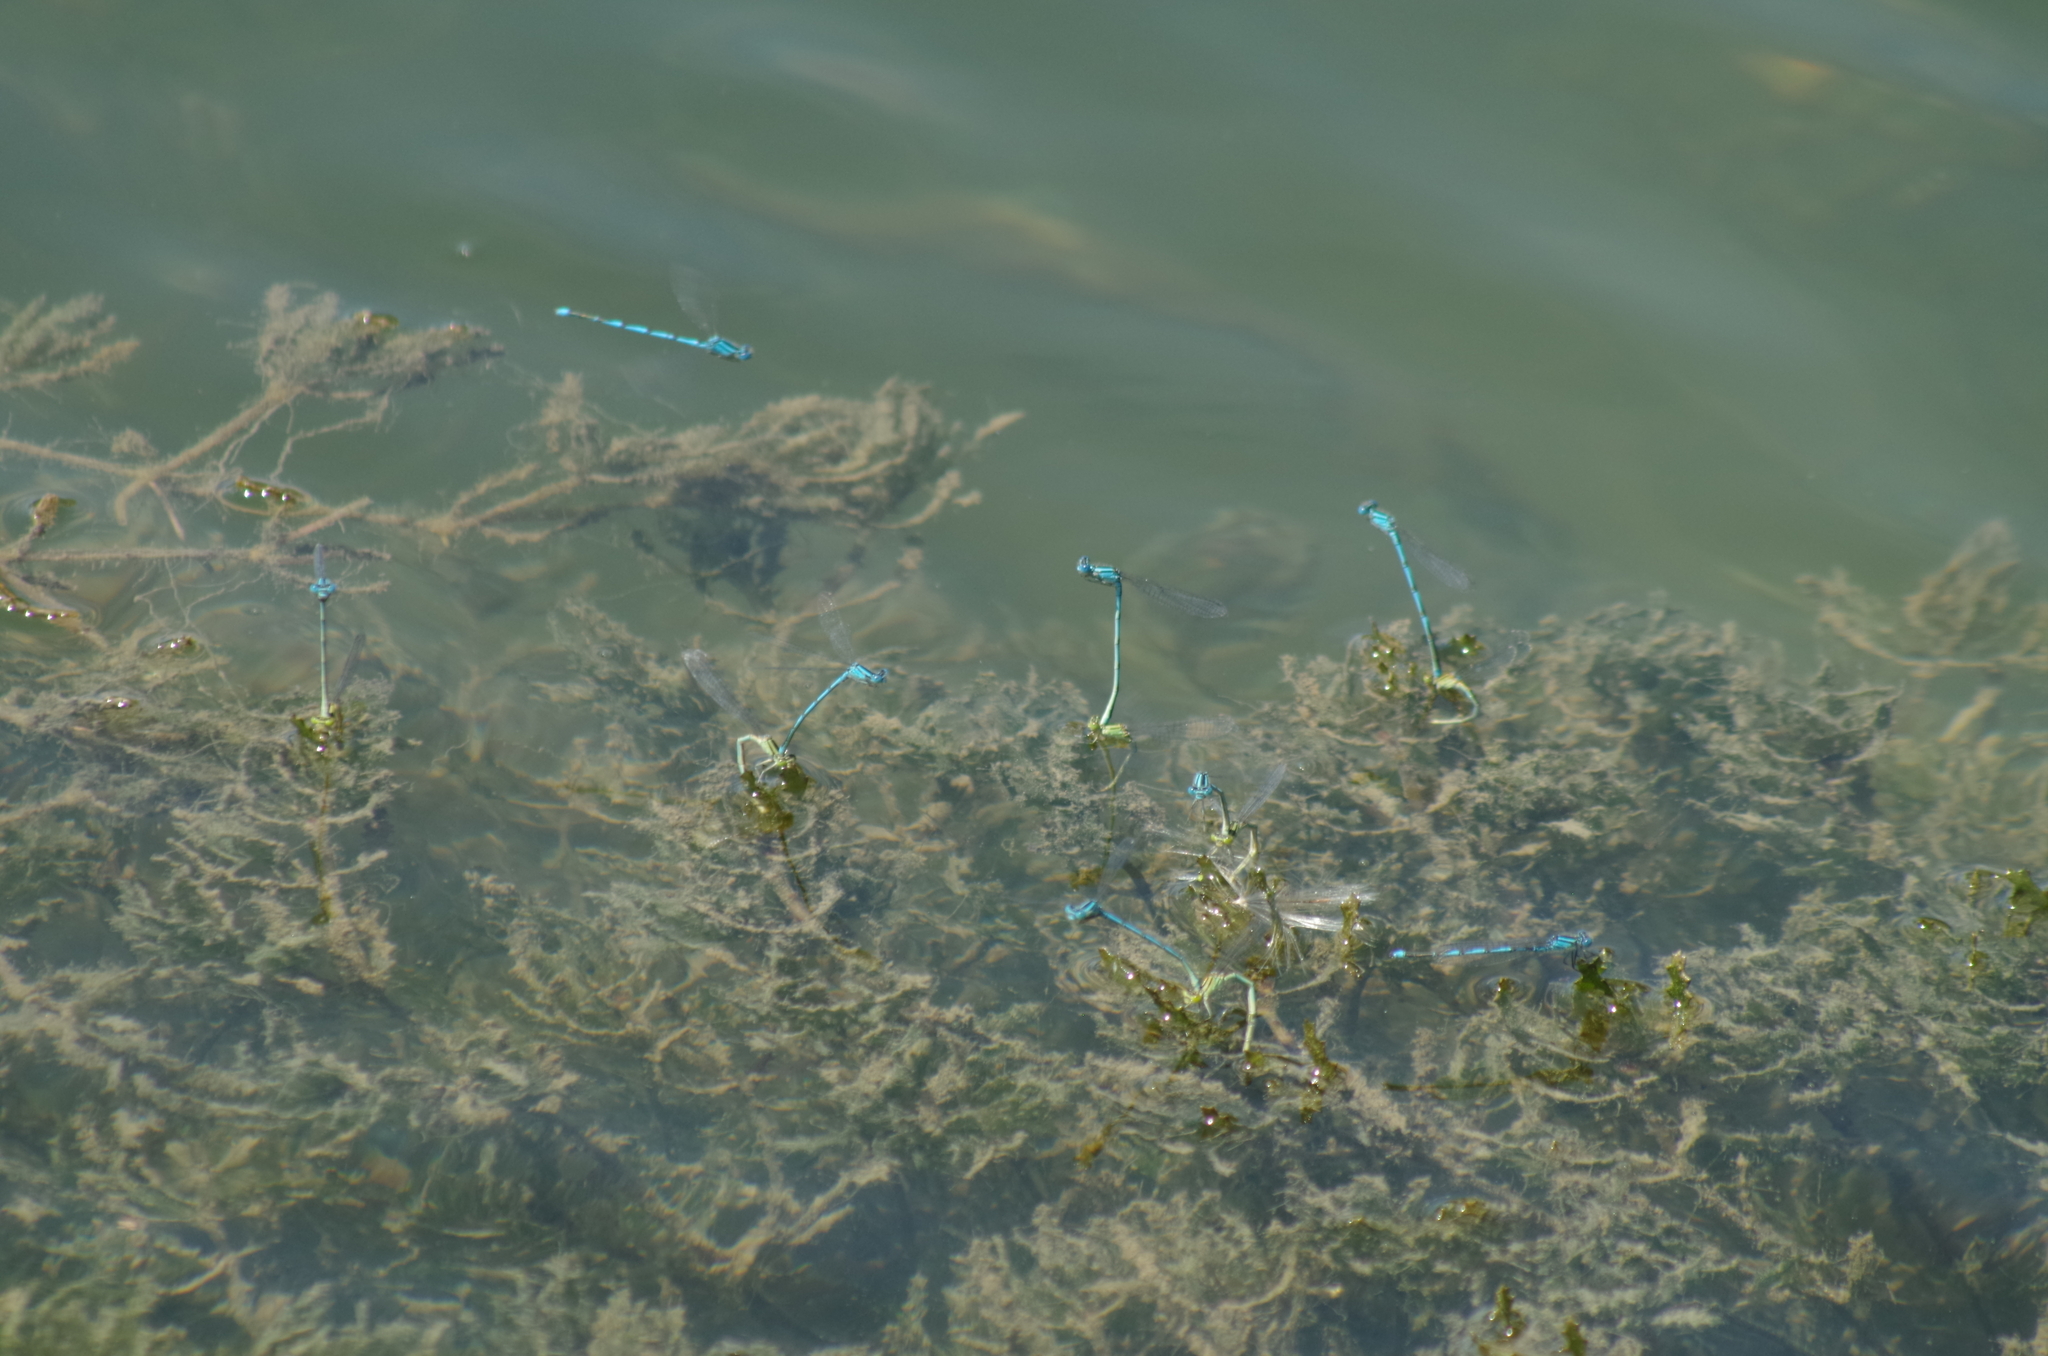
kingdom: Animalia
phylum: Arthropoda
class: Insecta
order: Odonata
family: Coenagrionidae
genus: Erythromma
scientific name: Erythromma lindenii
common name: Blue-eye
